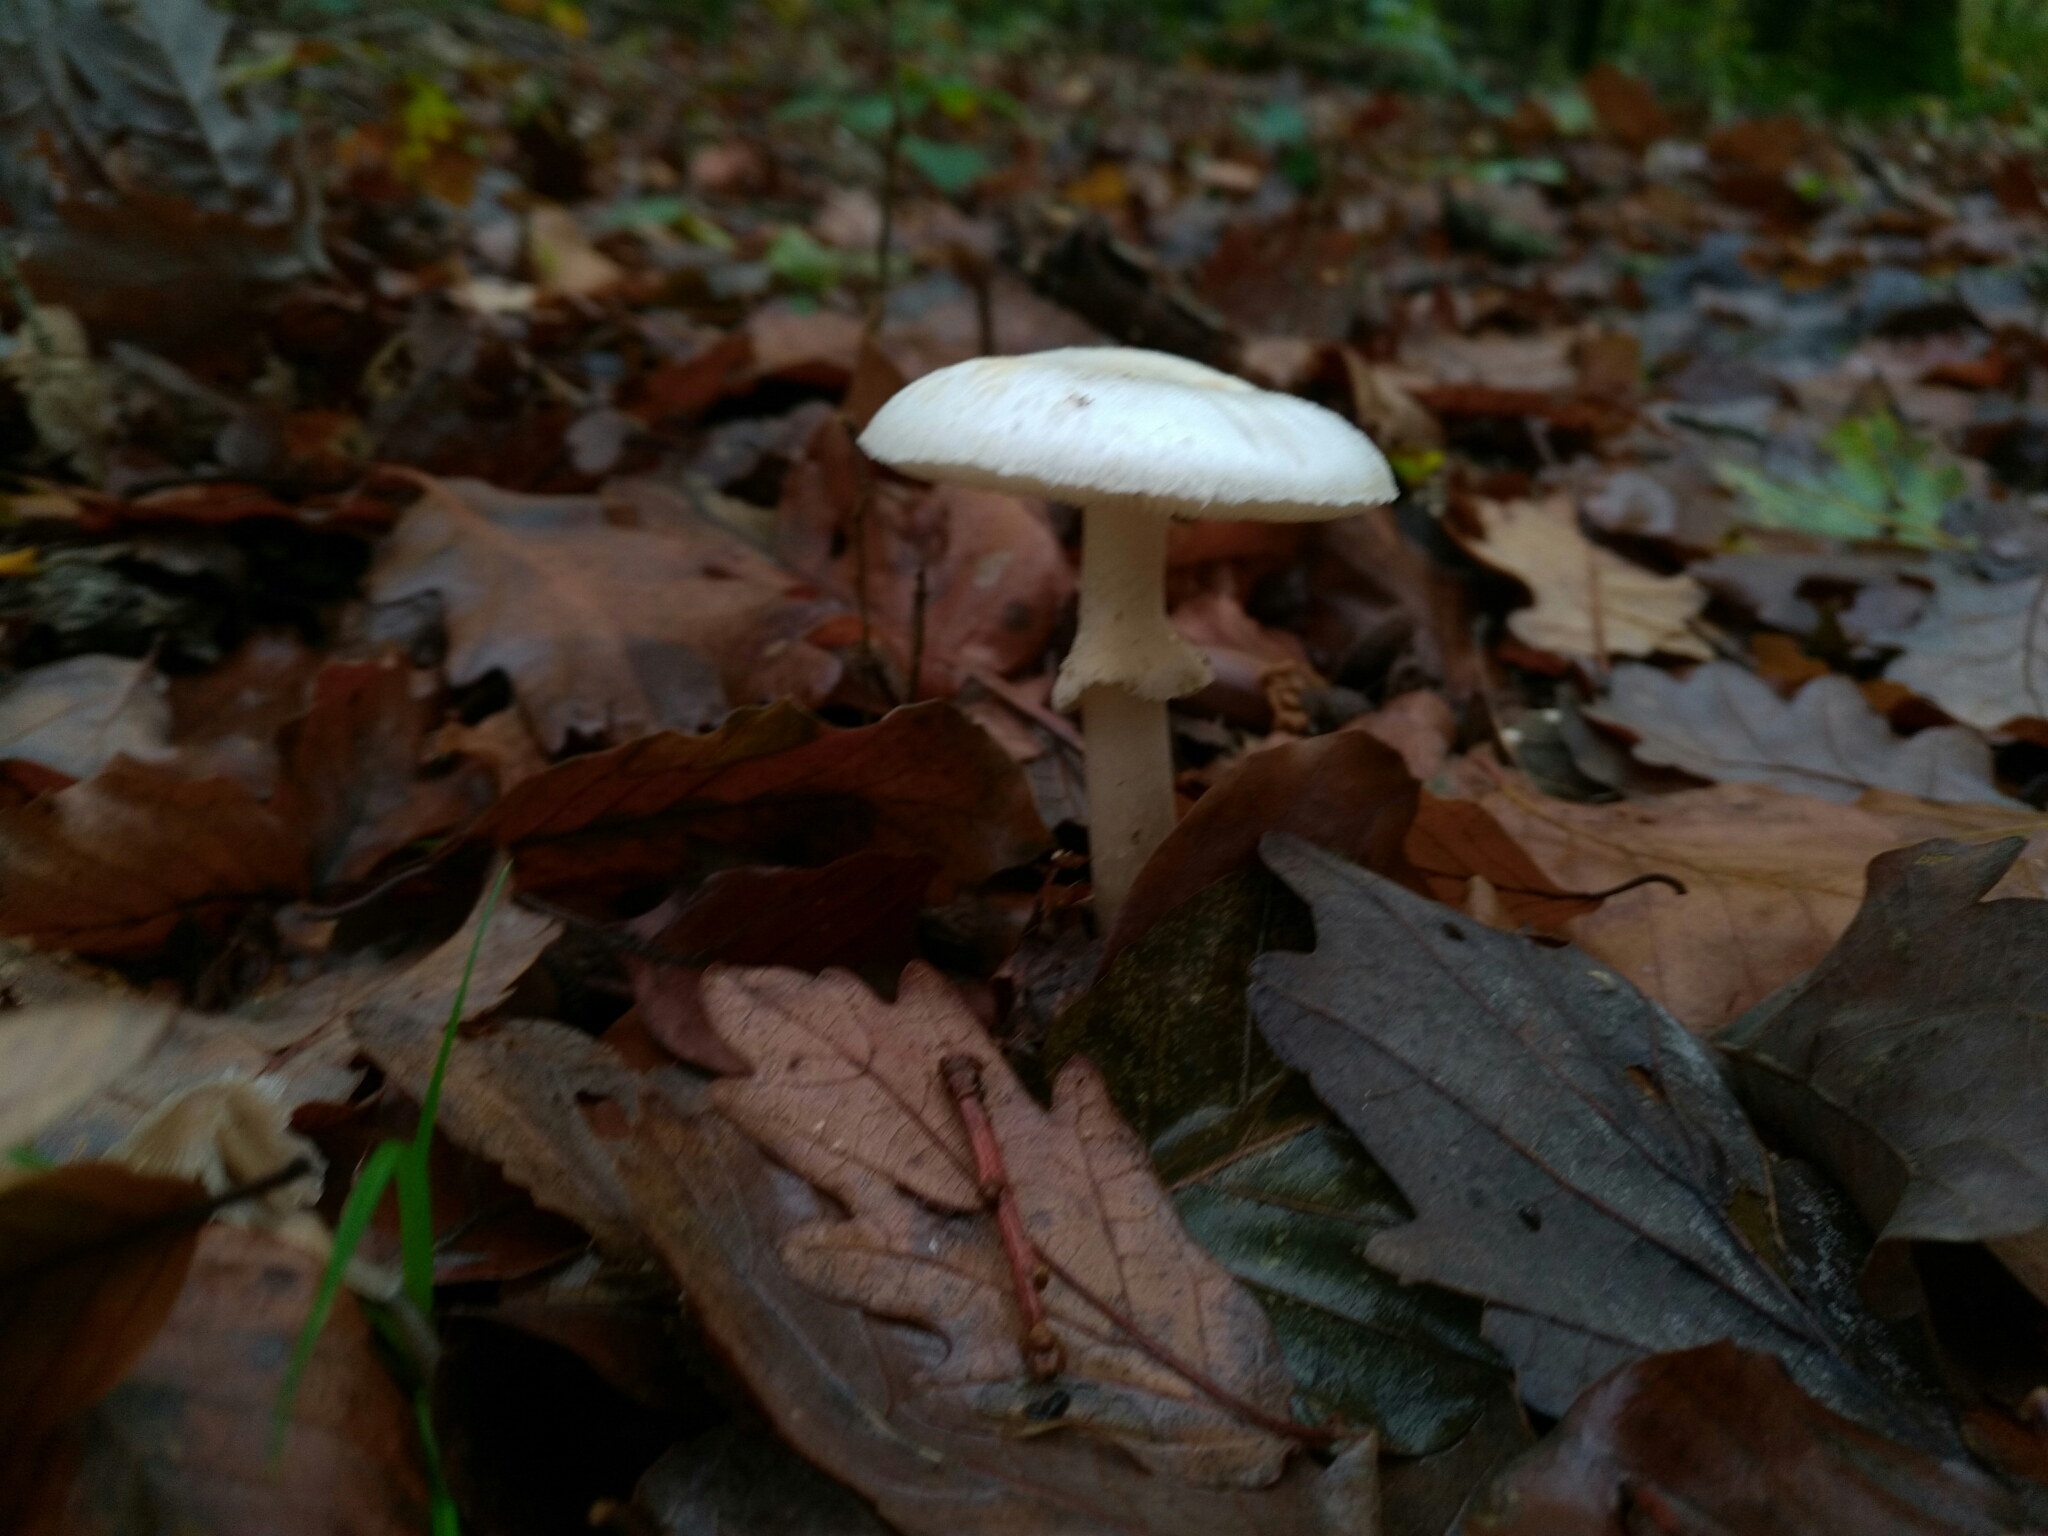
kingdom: Fungi
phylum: Basidiomycota
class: Agaricomycetes
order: Agaricales
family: Amanitaceae
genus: Amanita
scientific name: Amanita citrina
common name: False death-cap
